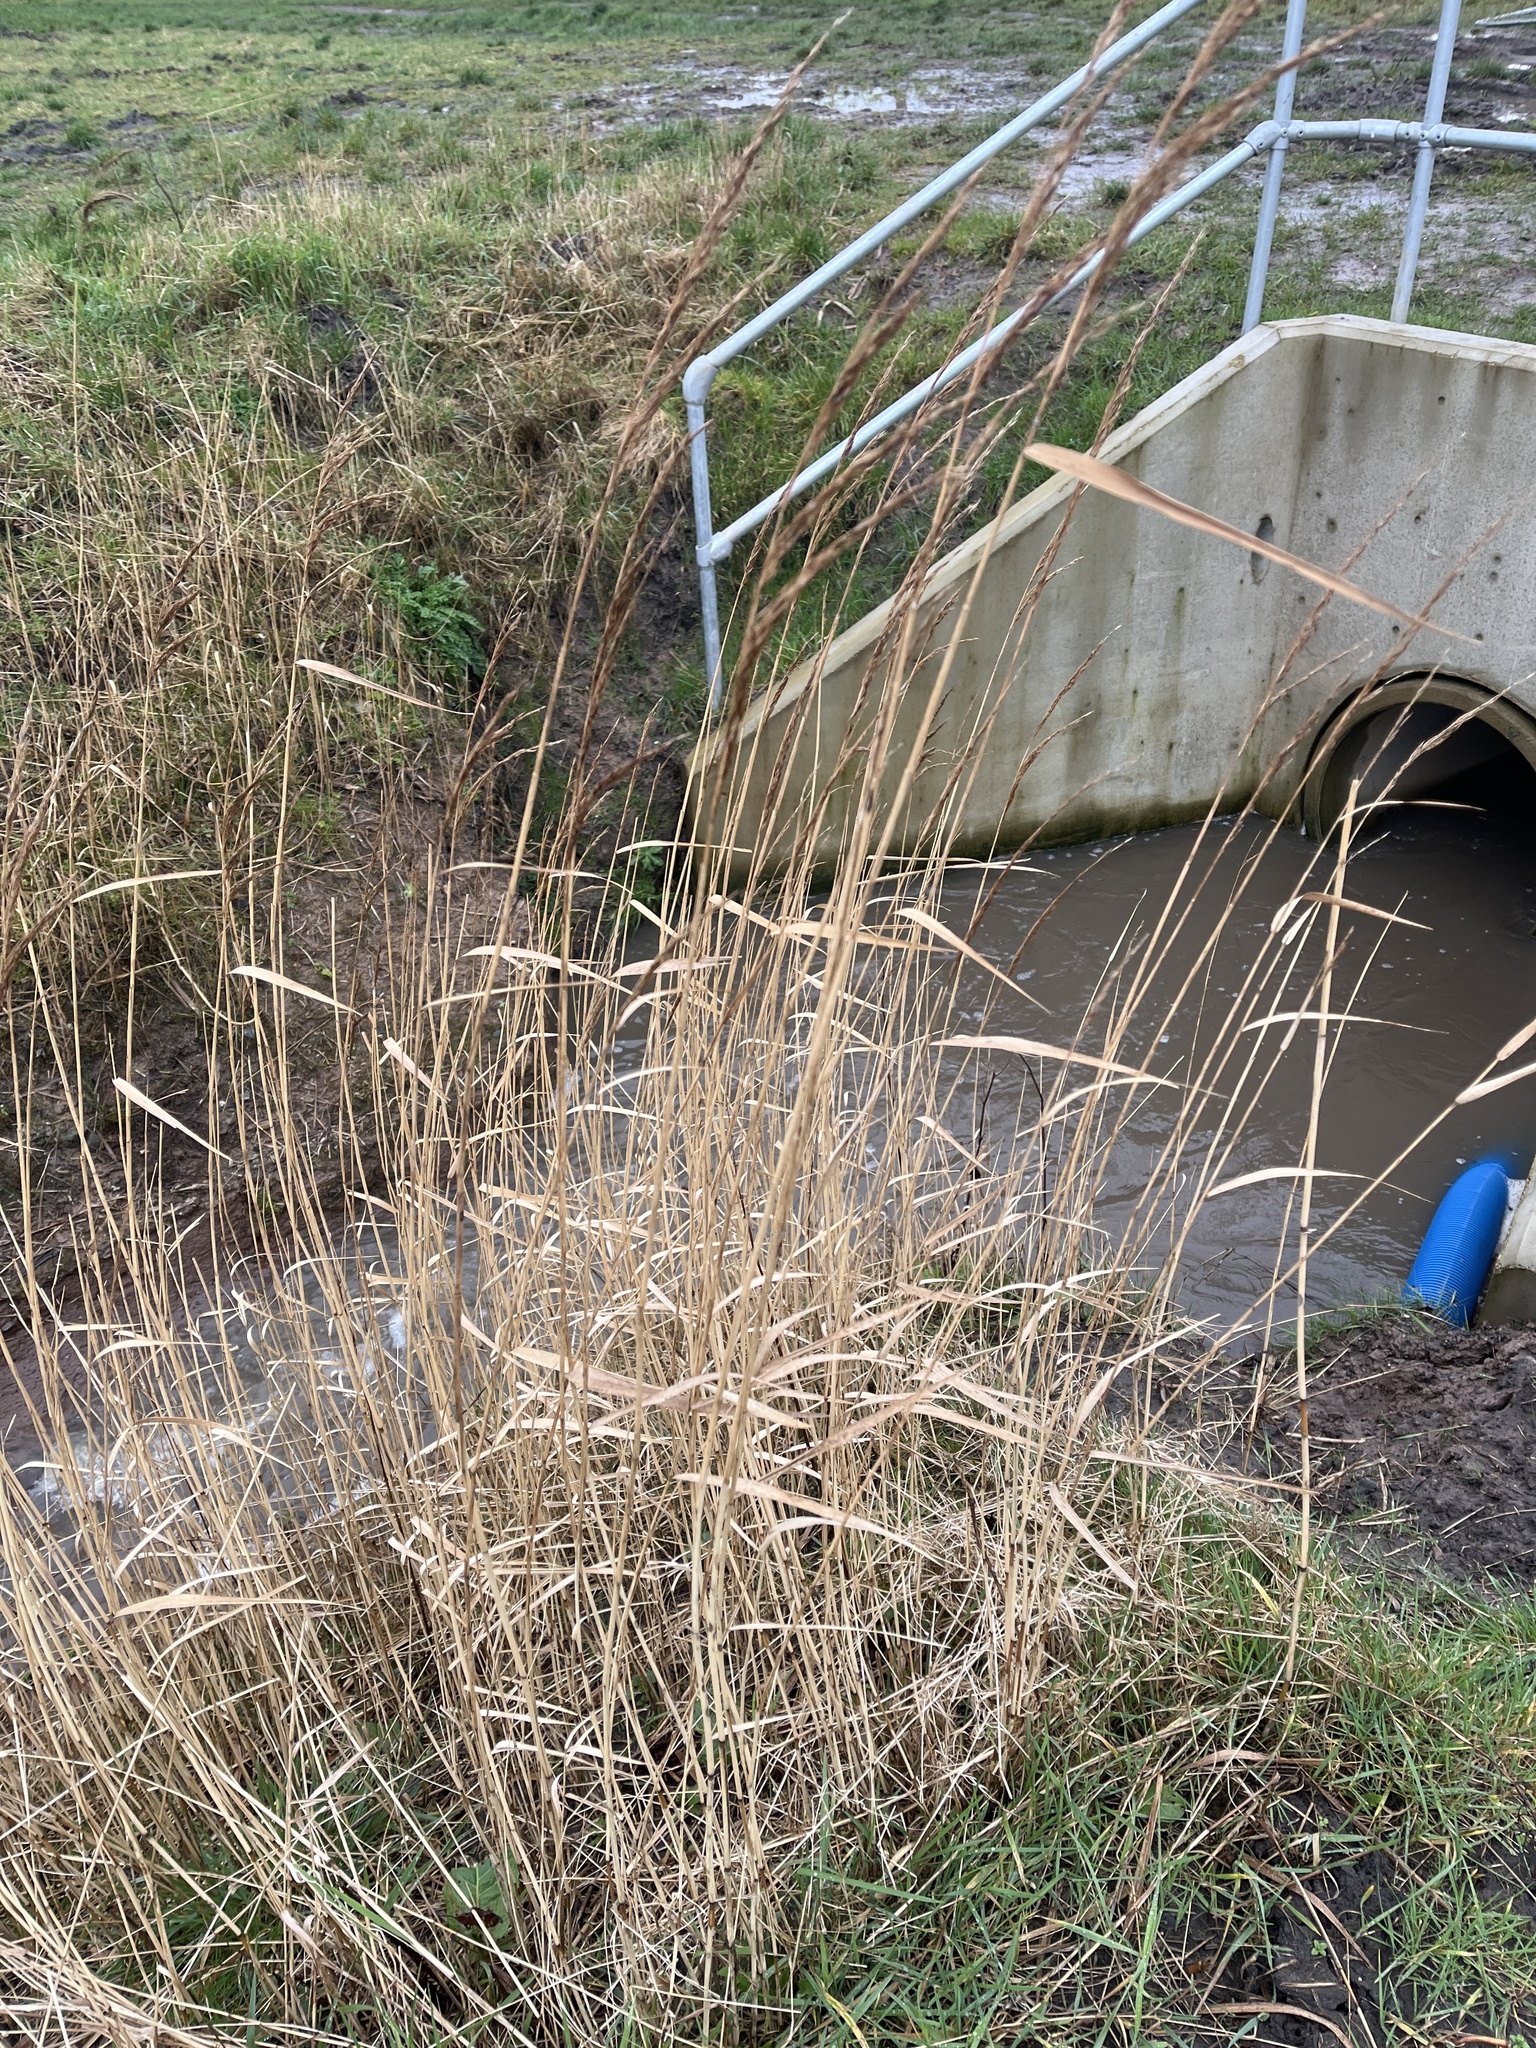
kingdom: Plantae
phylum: Tracheophyta
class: Liliopsida
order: Poales
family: Poaceae
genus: Phragmites
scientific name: Phragmites australis
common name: Common reed
